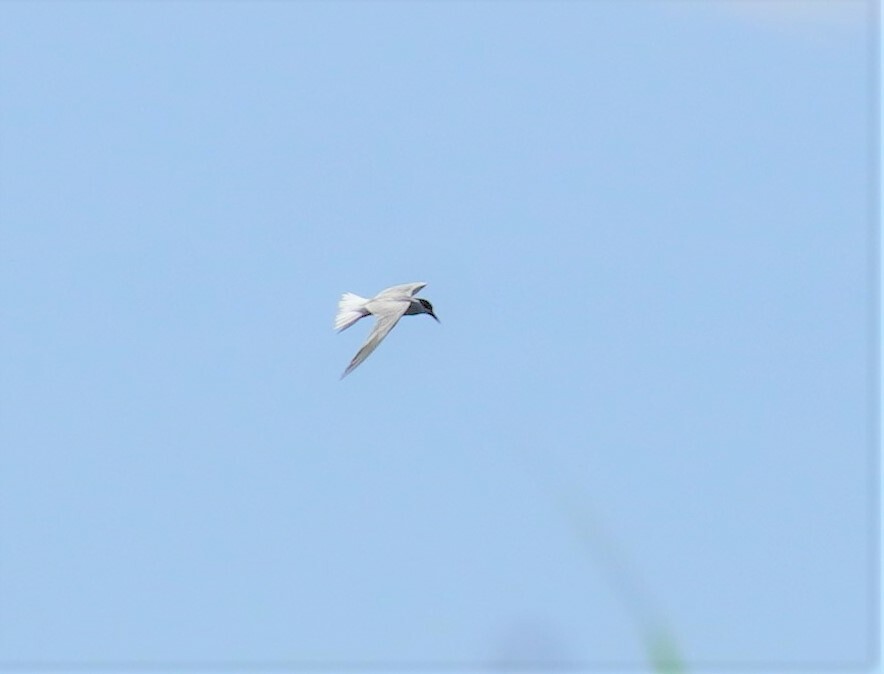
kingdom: Animalia
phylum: Chordata
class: Aves
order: Charadriiformes
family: Laridae
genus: Sterna
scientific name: Sterna hirundo
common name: Common tern
